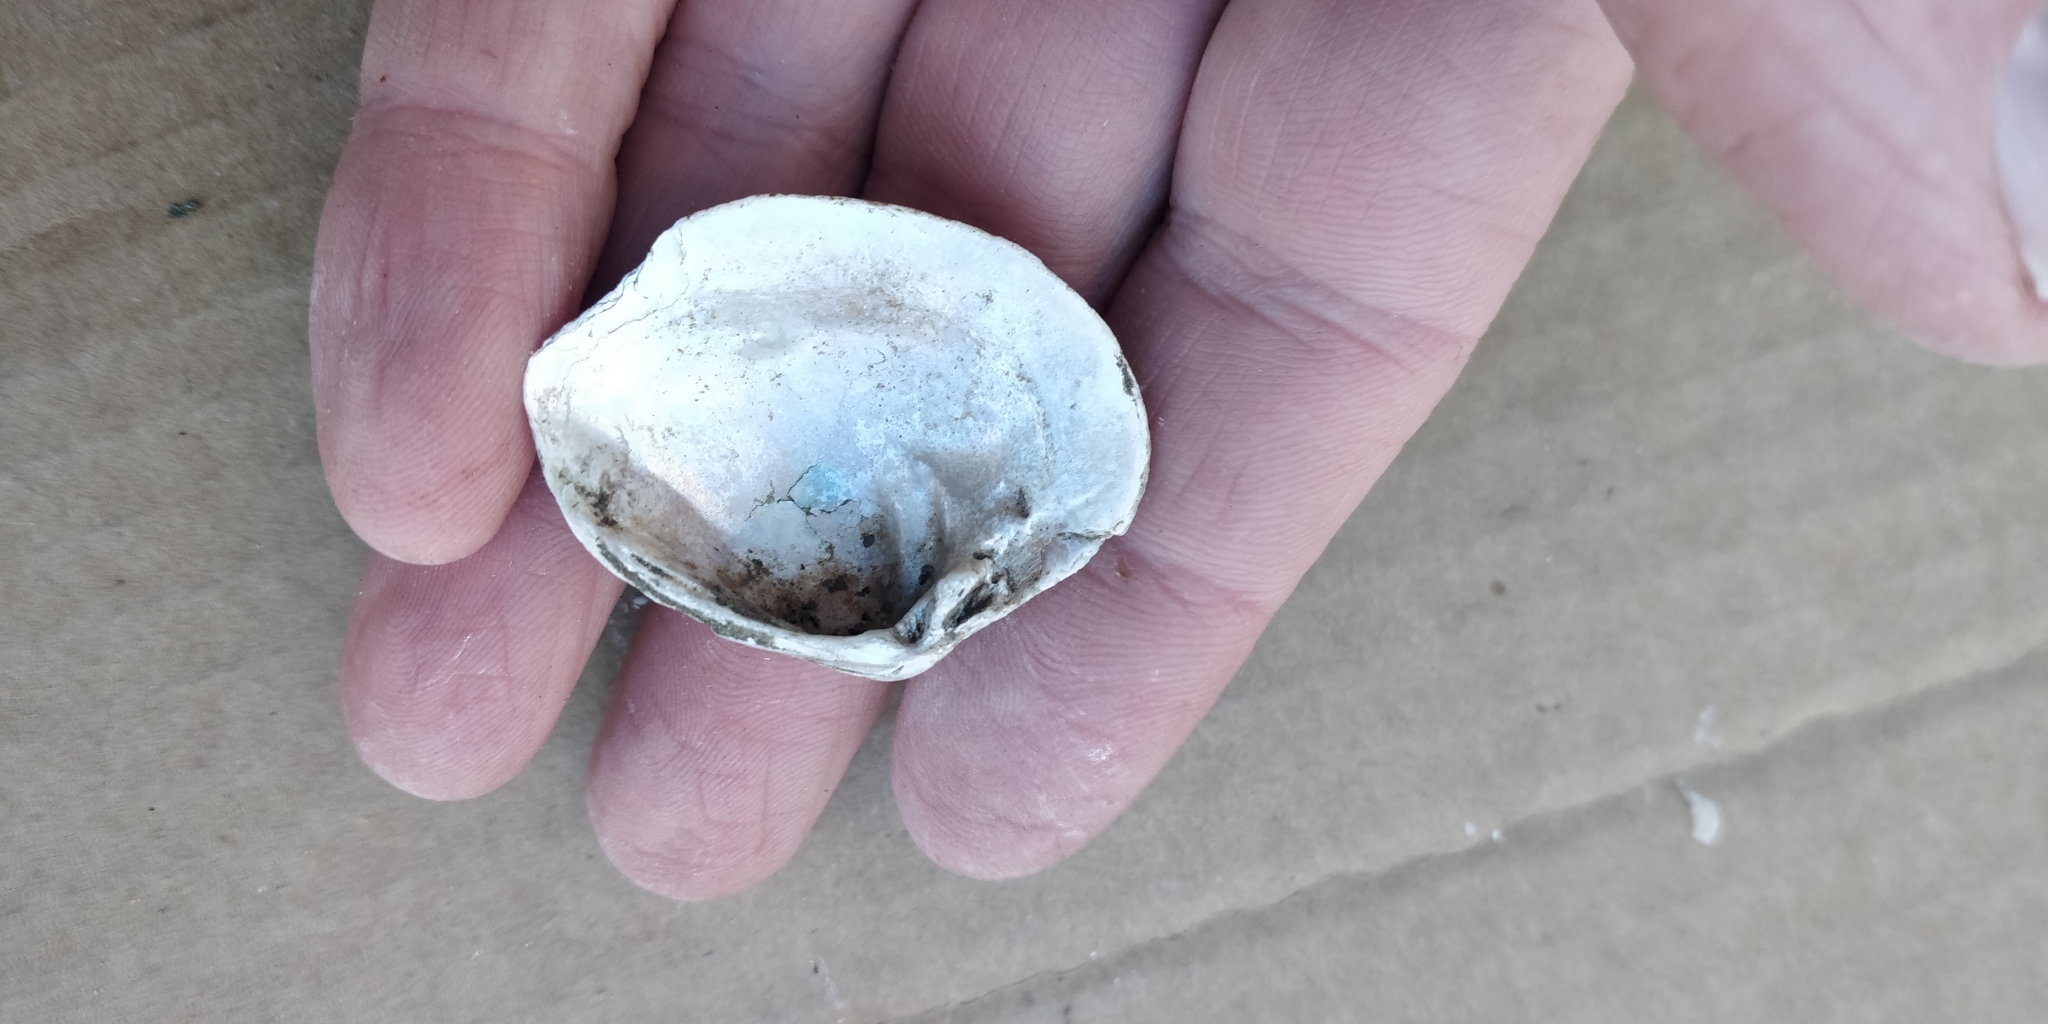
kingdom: Animalia
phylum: Mollusca
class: Bivalvia
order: Unionida
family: Unionidae
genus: Truncilla
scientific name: Truncilla truncata
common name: Deertoe
